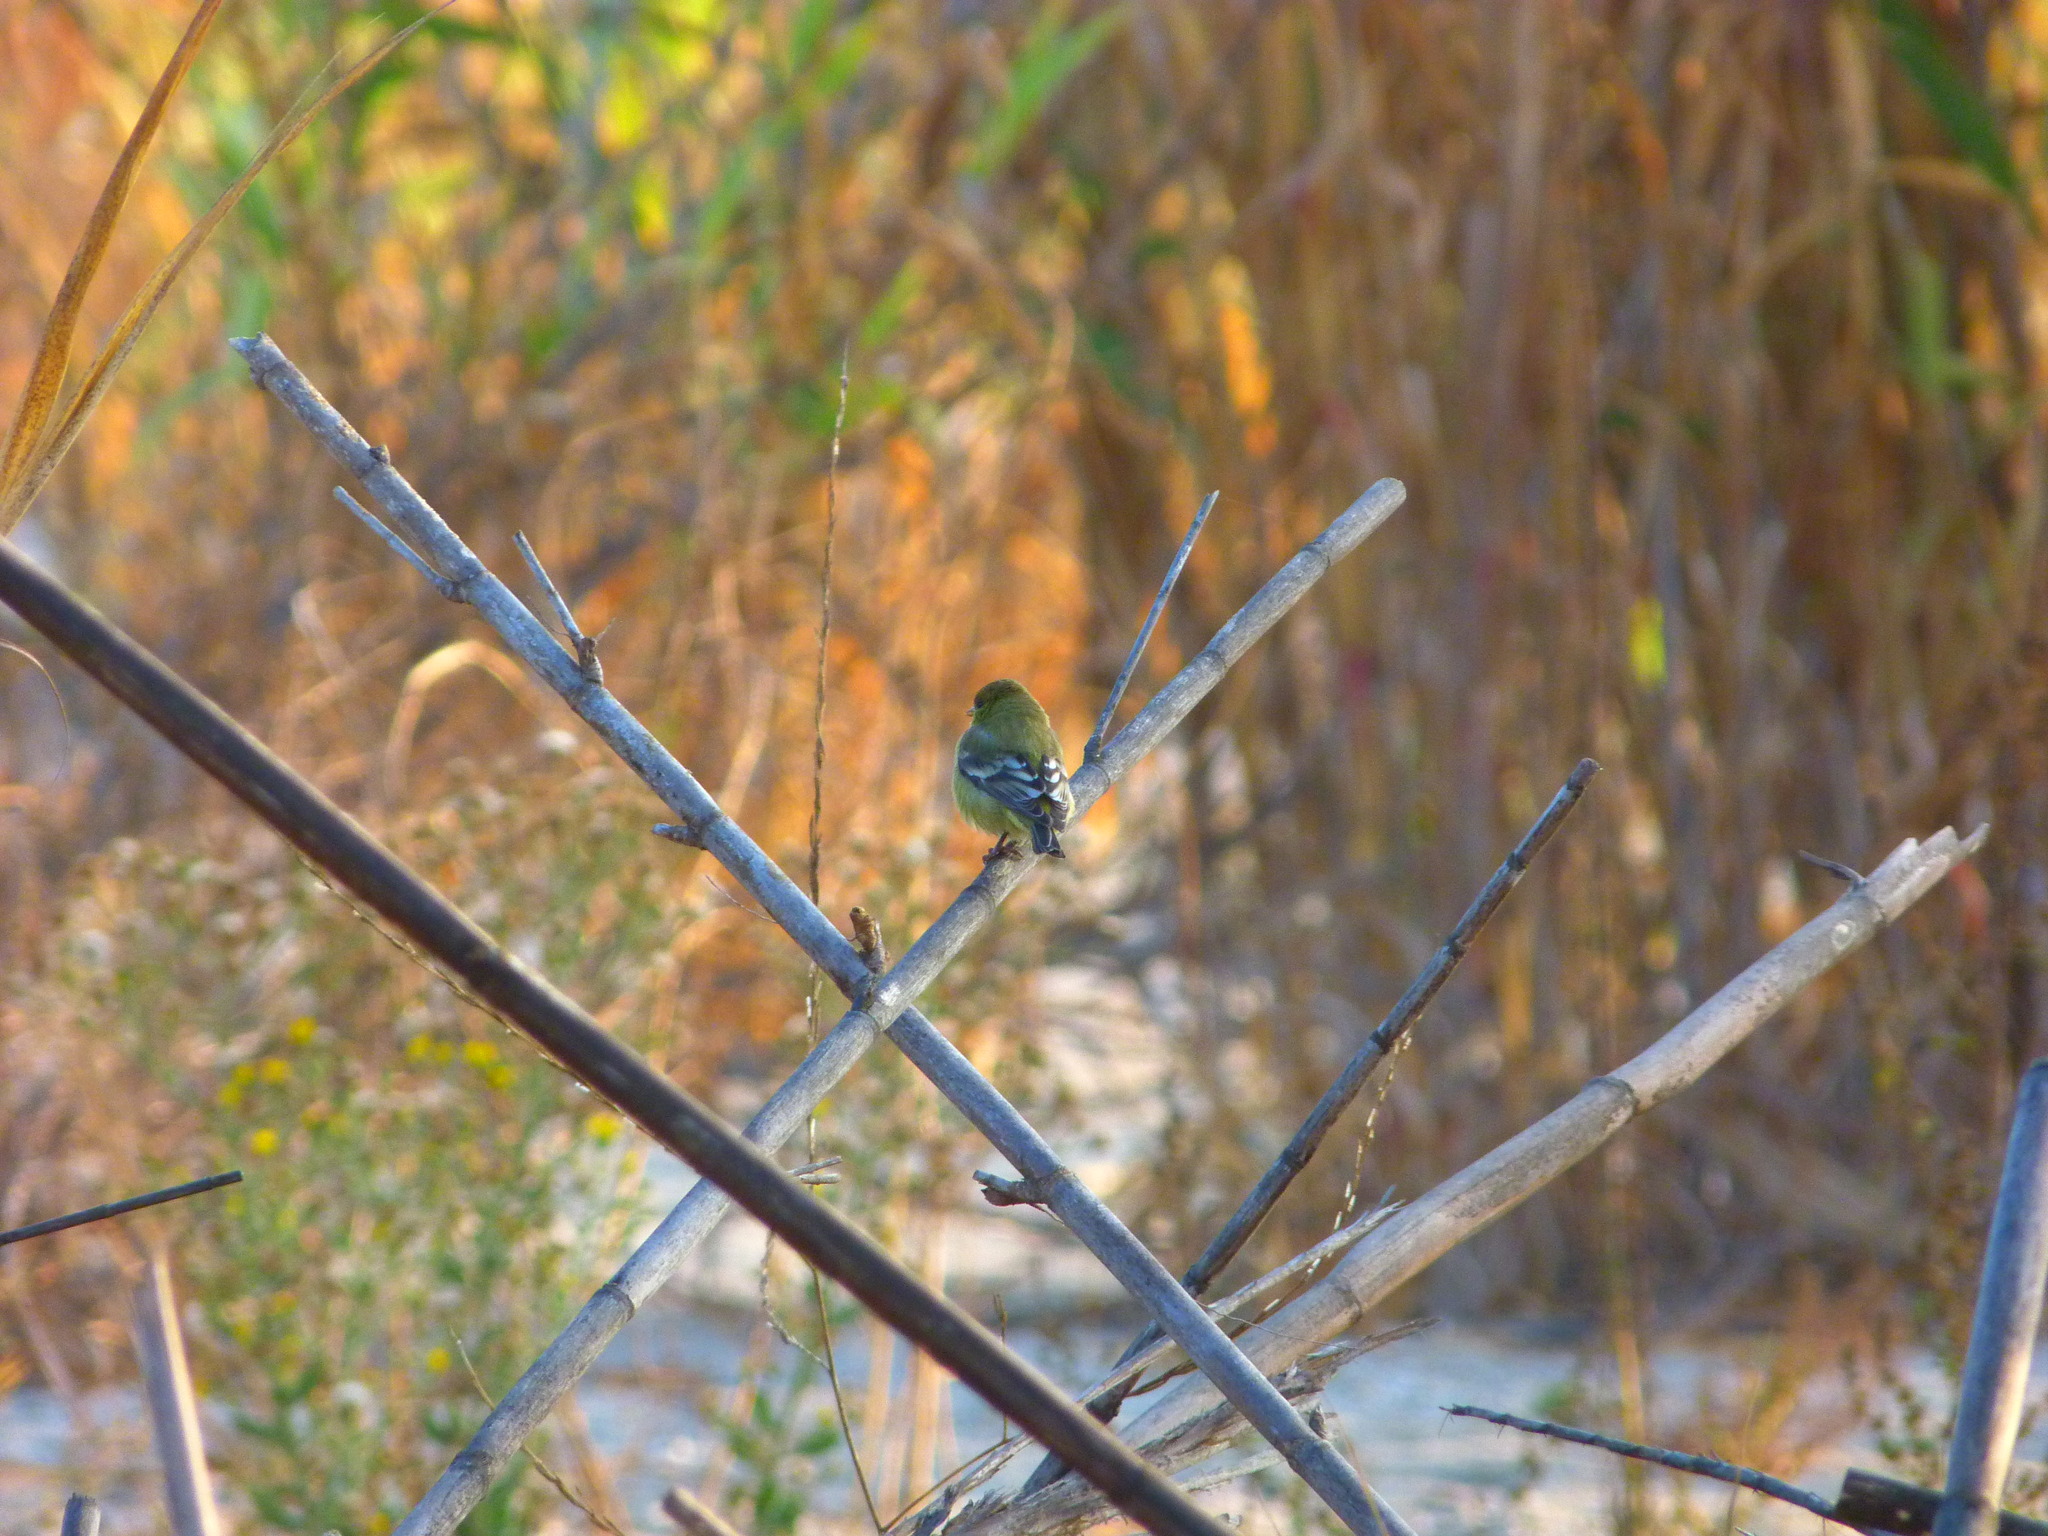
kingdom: Animalia
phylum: Chordata
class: Aves
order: Passeriformes
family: Fringillidae
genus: Spinus
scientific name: Spinus psaltria
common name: Lesser goldfinch
